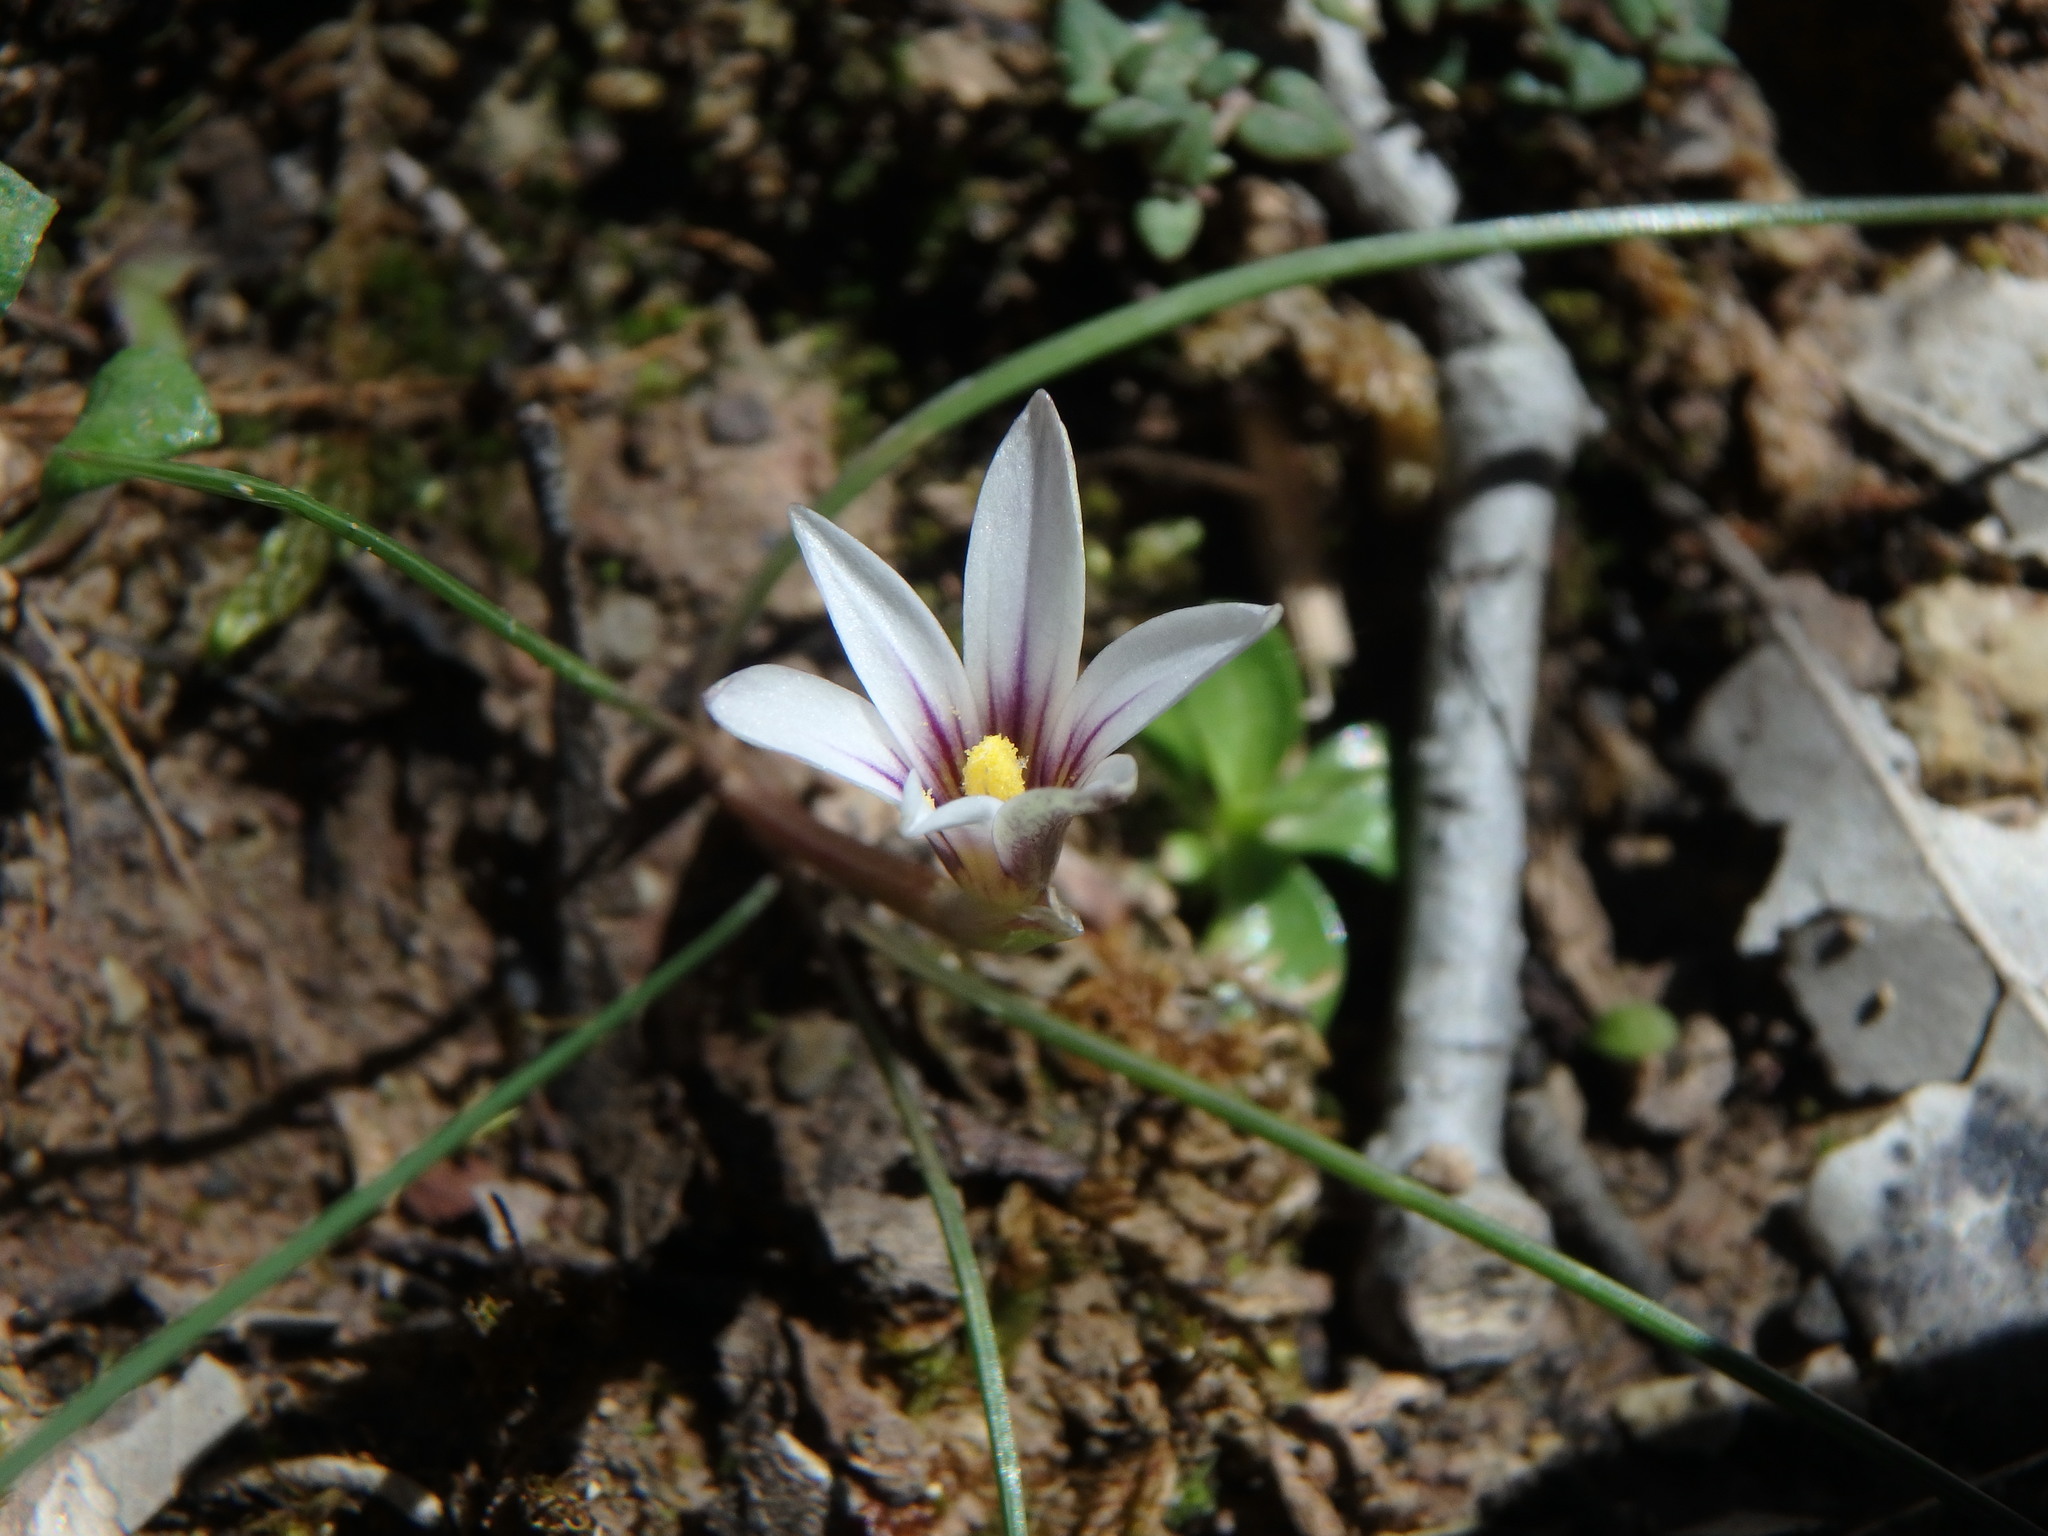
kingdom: Plantae
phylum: Tracheophyta
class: Liliopsida
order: Asparagales
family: Iridaceae
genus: Romulea
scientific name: Romulea columnae
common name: Sand-crocus
